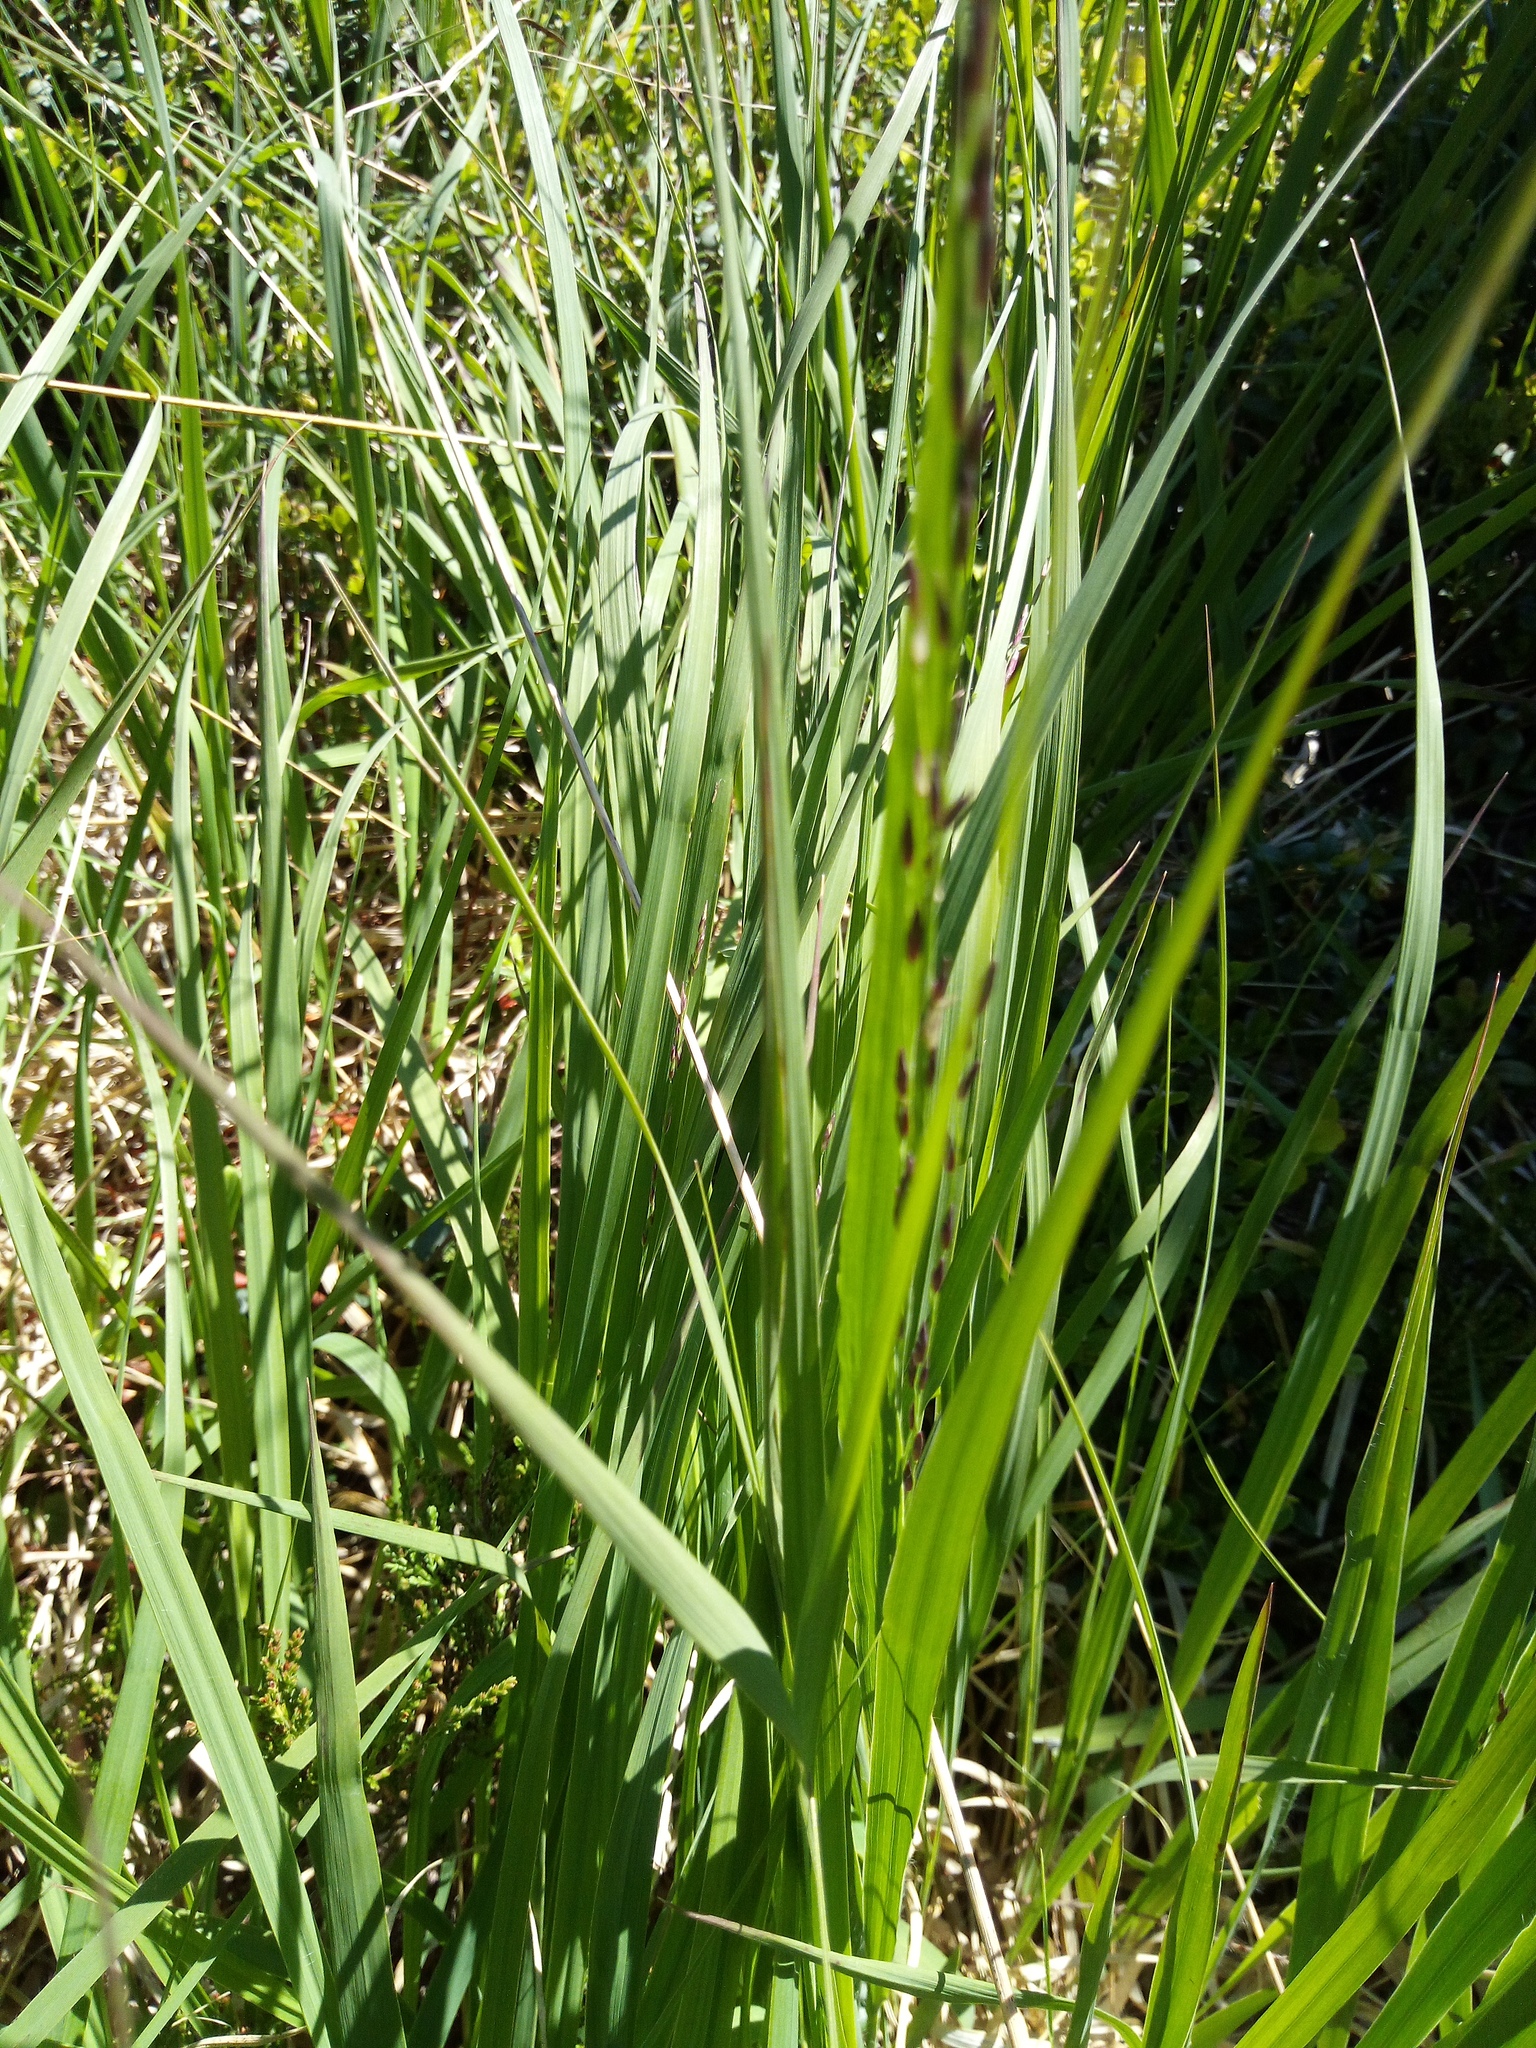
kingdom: Plantae
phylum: Tracheophyta
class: Liliopsida
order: Poales
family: Poaceae
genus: Calamagrostis
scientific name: Calamagrostis villosa
